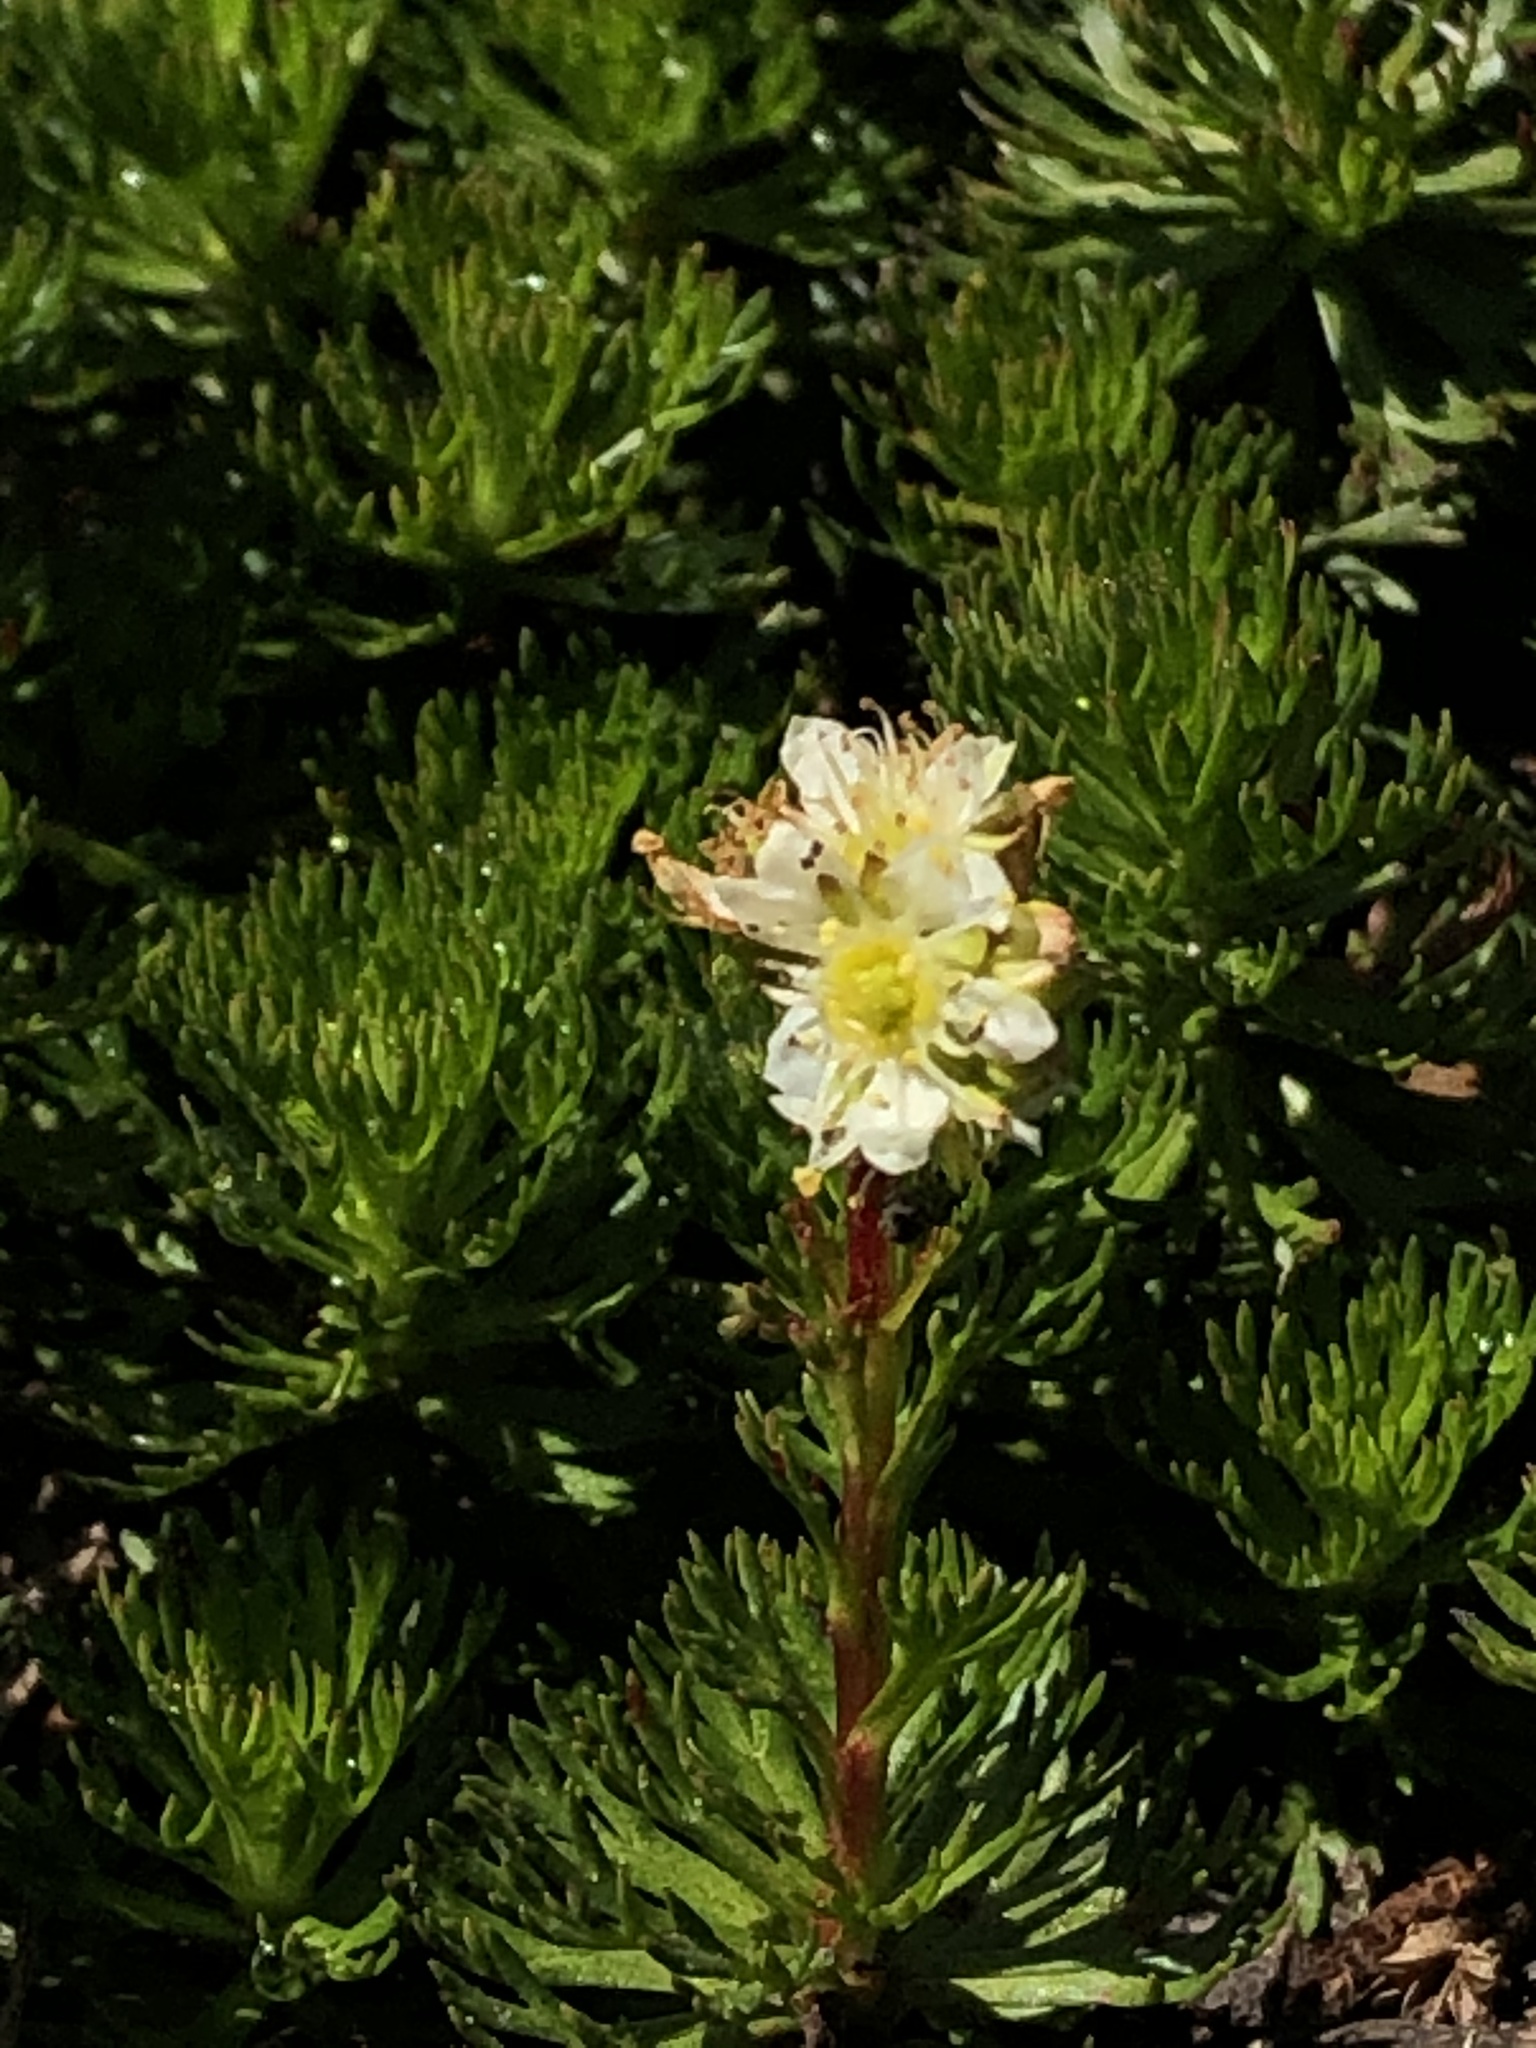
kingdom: Plantae
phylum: Tracheophyta
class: Magnoliopsida
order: Rosales
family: Rosaceae
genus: Luetkea
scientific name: Luetkea pectinata
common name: Partridgefoot
